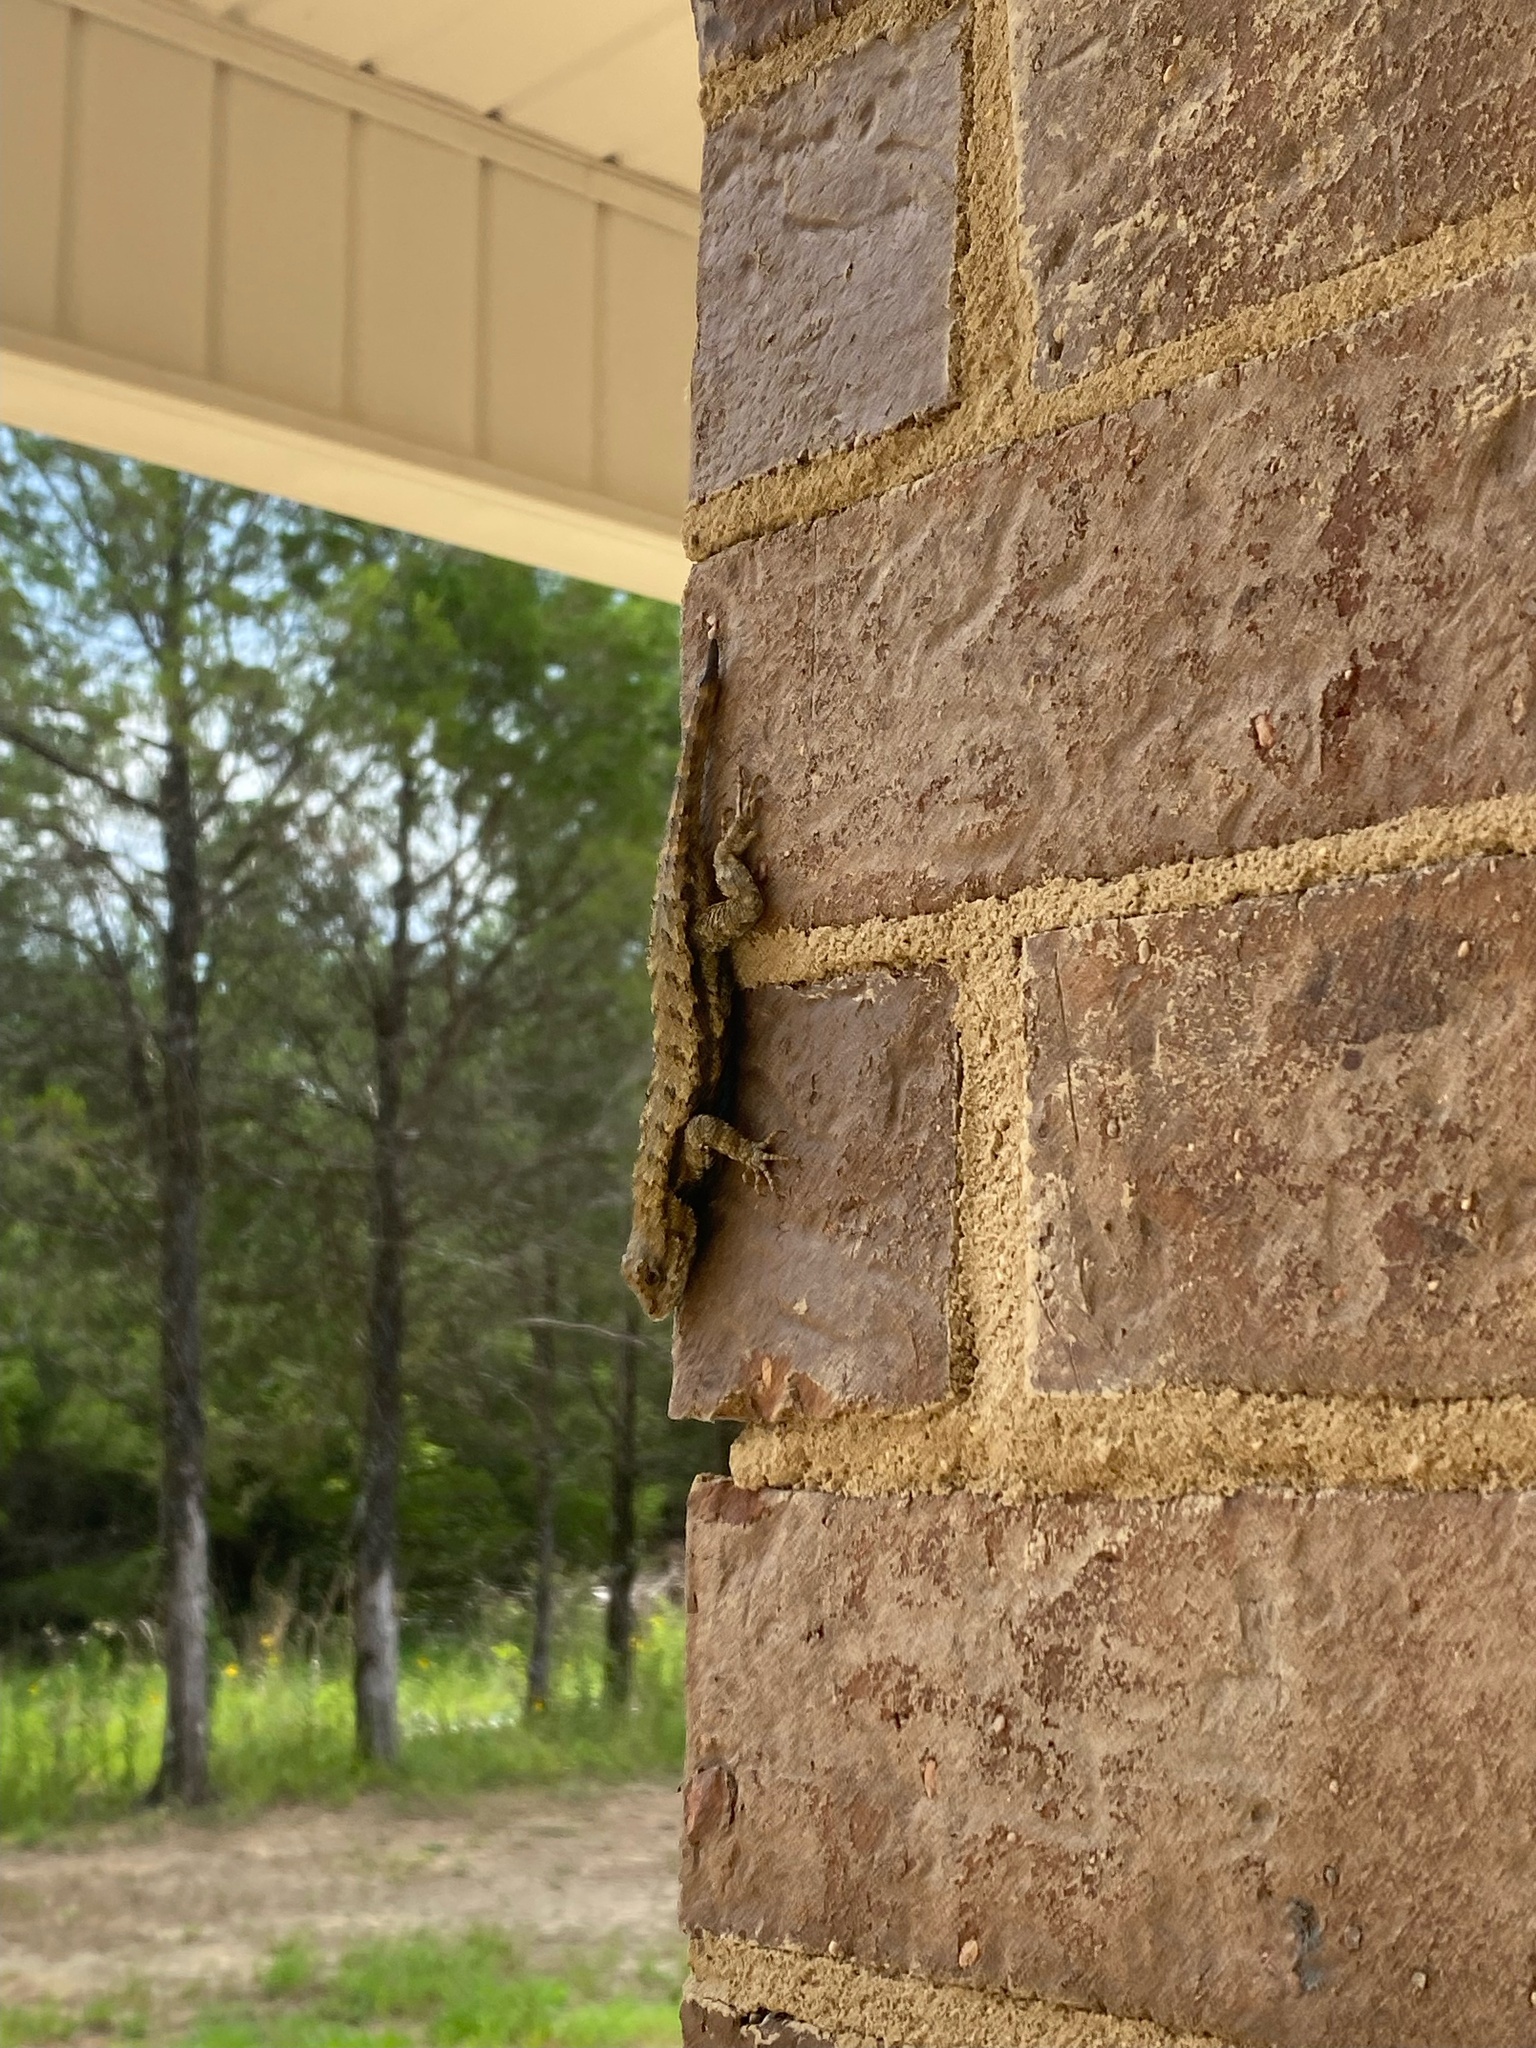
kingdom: Animalia
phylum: Chordata
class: Squamata
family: Phrynosomatidae
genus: Sceloporus
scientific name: Sceloporus undulatus
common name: Eastern fence lizard
